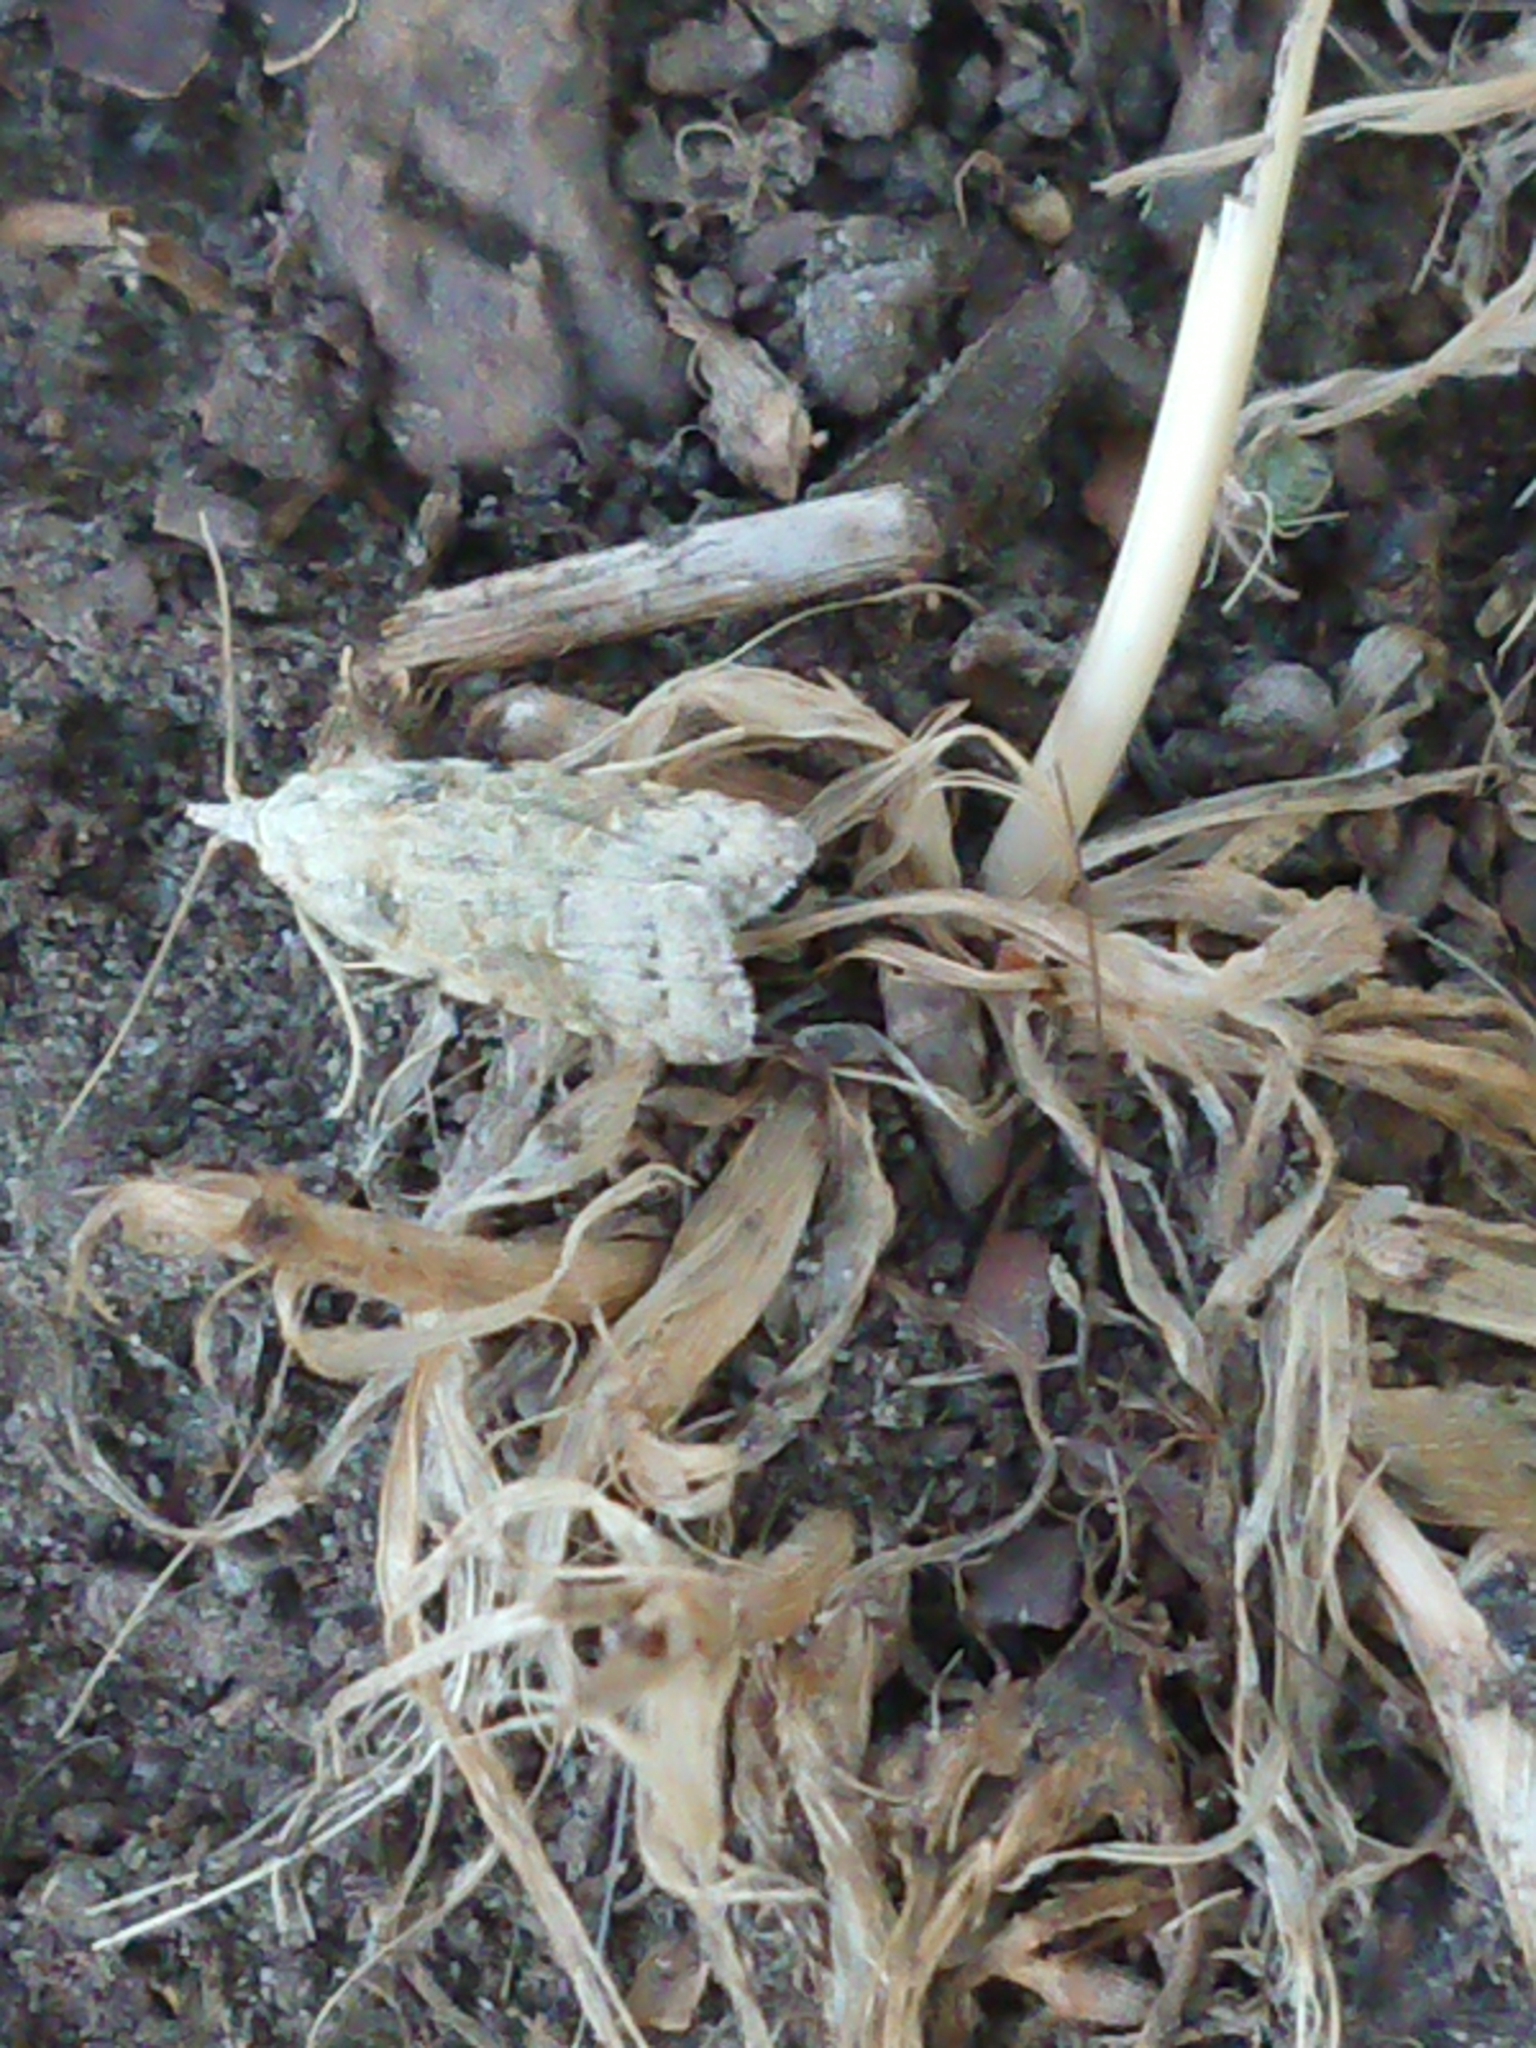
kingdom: Animalia
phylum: Arthropoda
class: Insecta
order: Lepidoptera
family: Carposinidae
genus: Carposina
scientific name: Carposina
